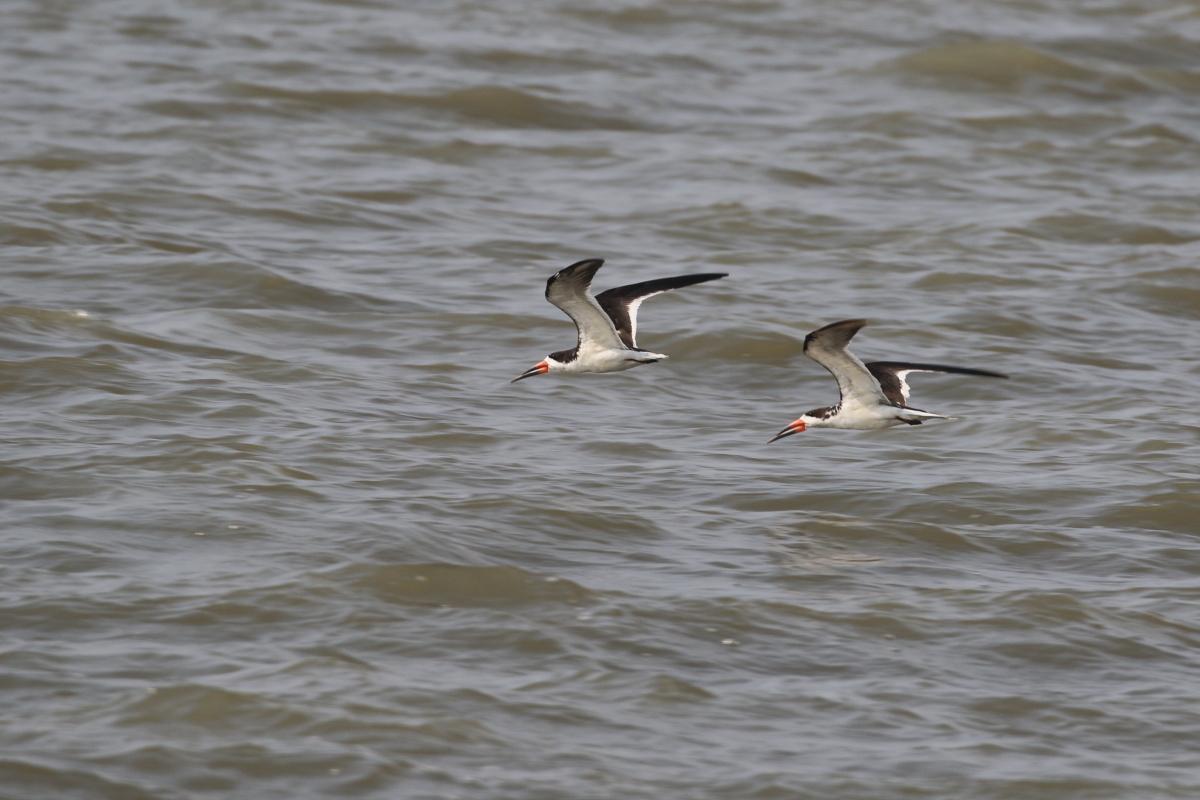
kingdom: Animalia
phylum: Chordata
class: Aves
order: Charadriiformes
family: Laridae
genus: Rynchops
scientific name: Rynchops niger
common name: Black skimmer
